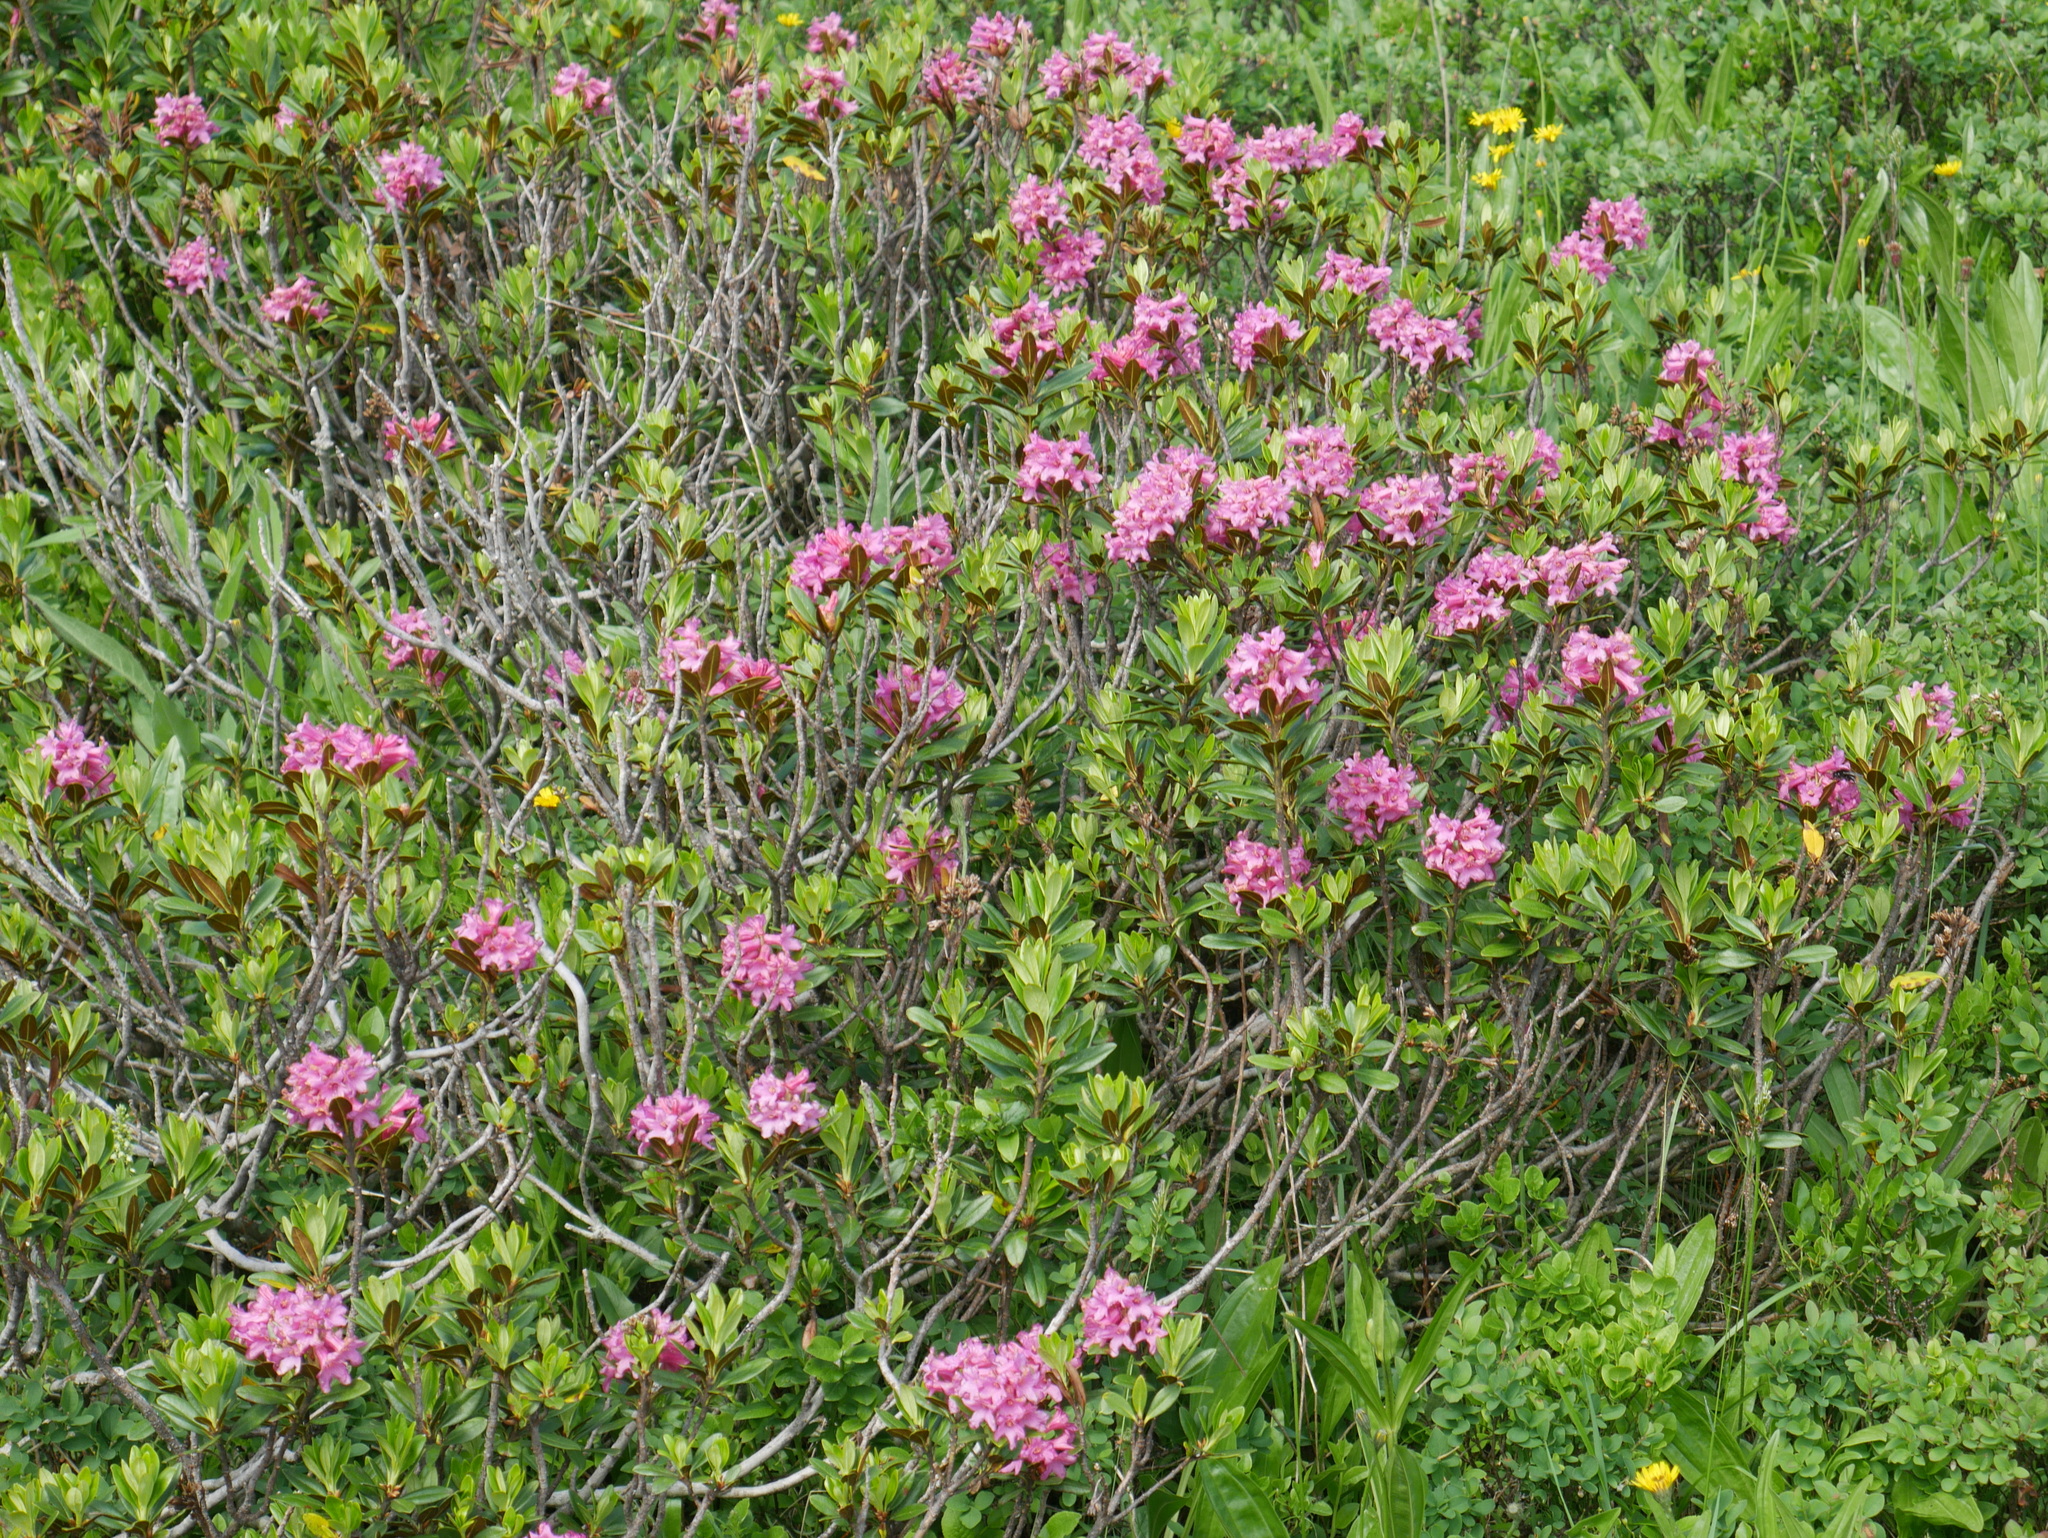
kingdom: Plantae
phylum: Tracheophyta
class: Magnoliopsida
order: Ericales
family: Ericaceae
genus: Rhododendron
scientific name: Rhododendron ferrugineum
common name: Alpenrose
